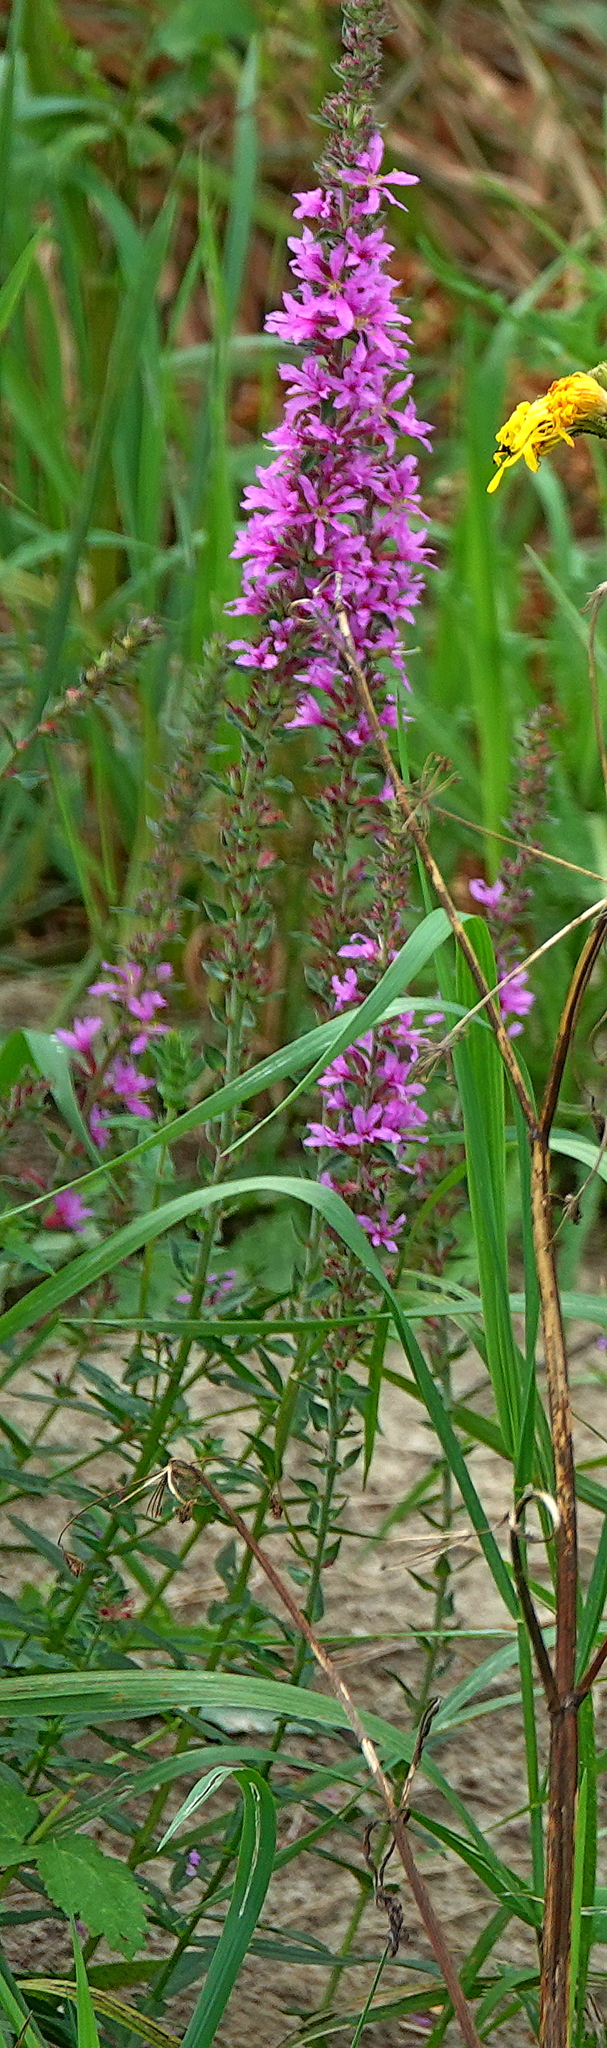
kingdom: Plantae
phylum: Tracheophyta
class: Magnoliopsida
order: Myrtales
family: Lythraceae
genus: Lythrum
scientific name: Lythrum salicaria
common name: Purple loosestrife
